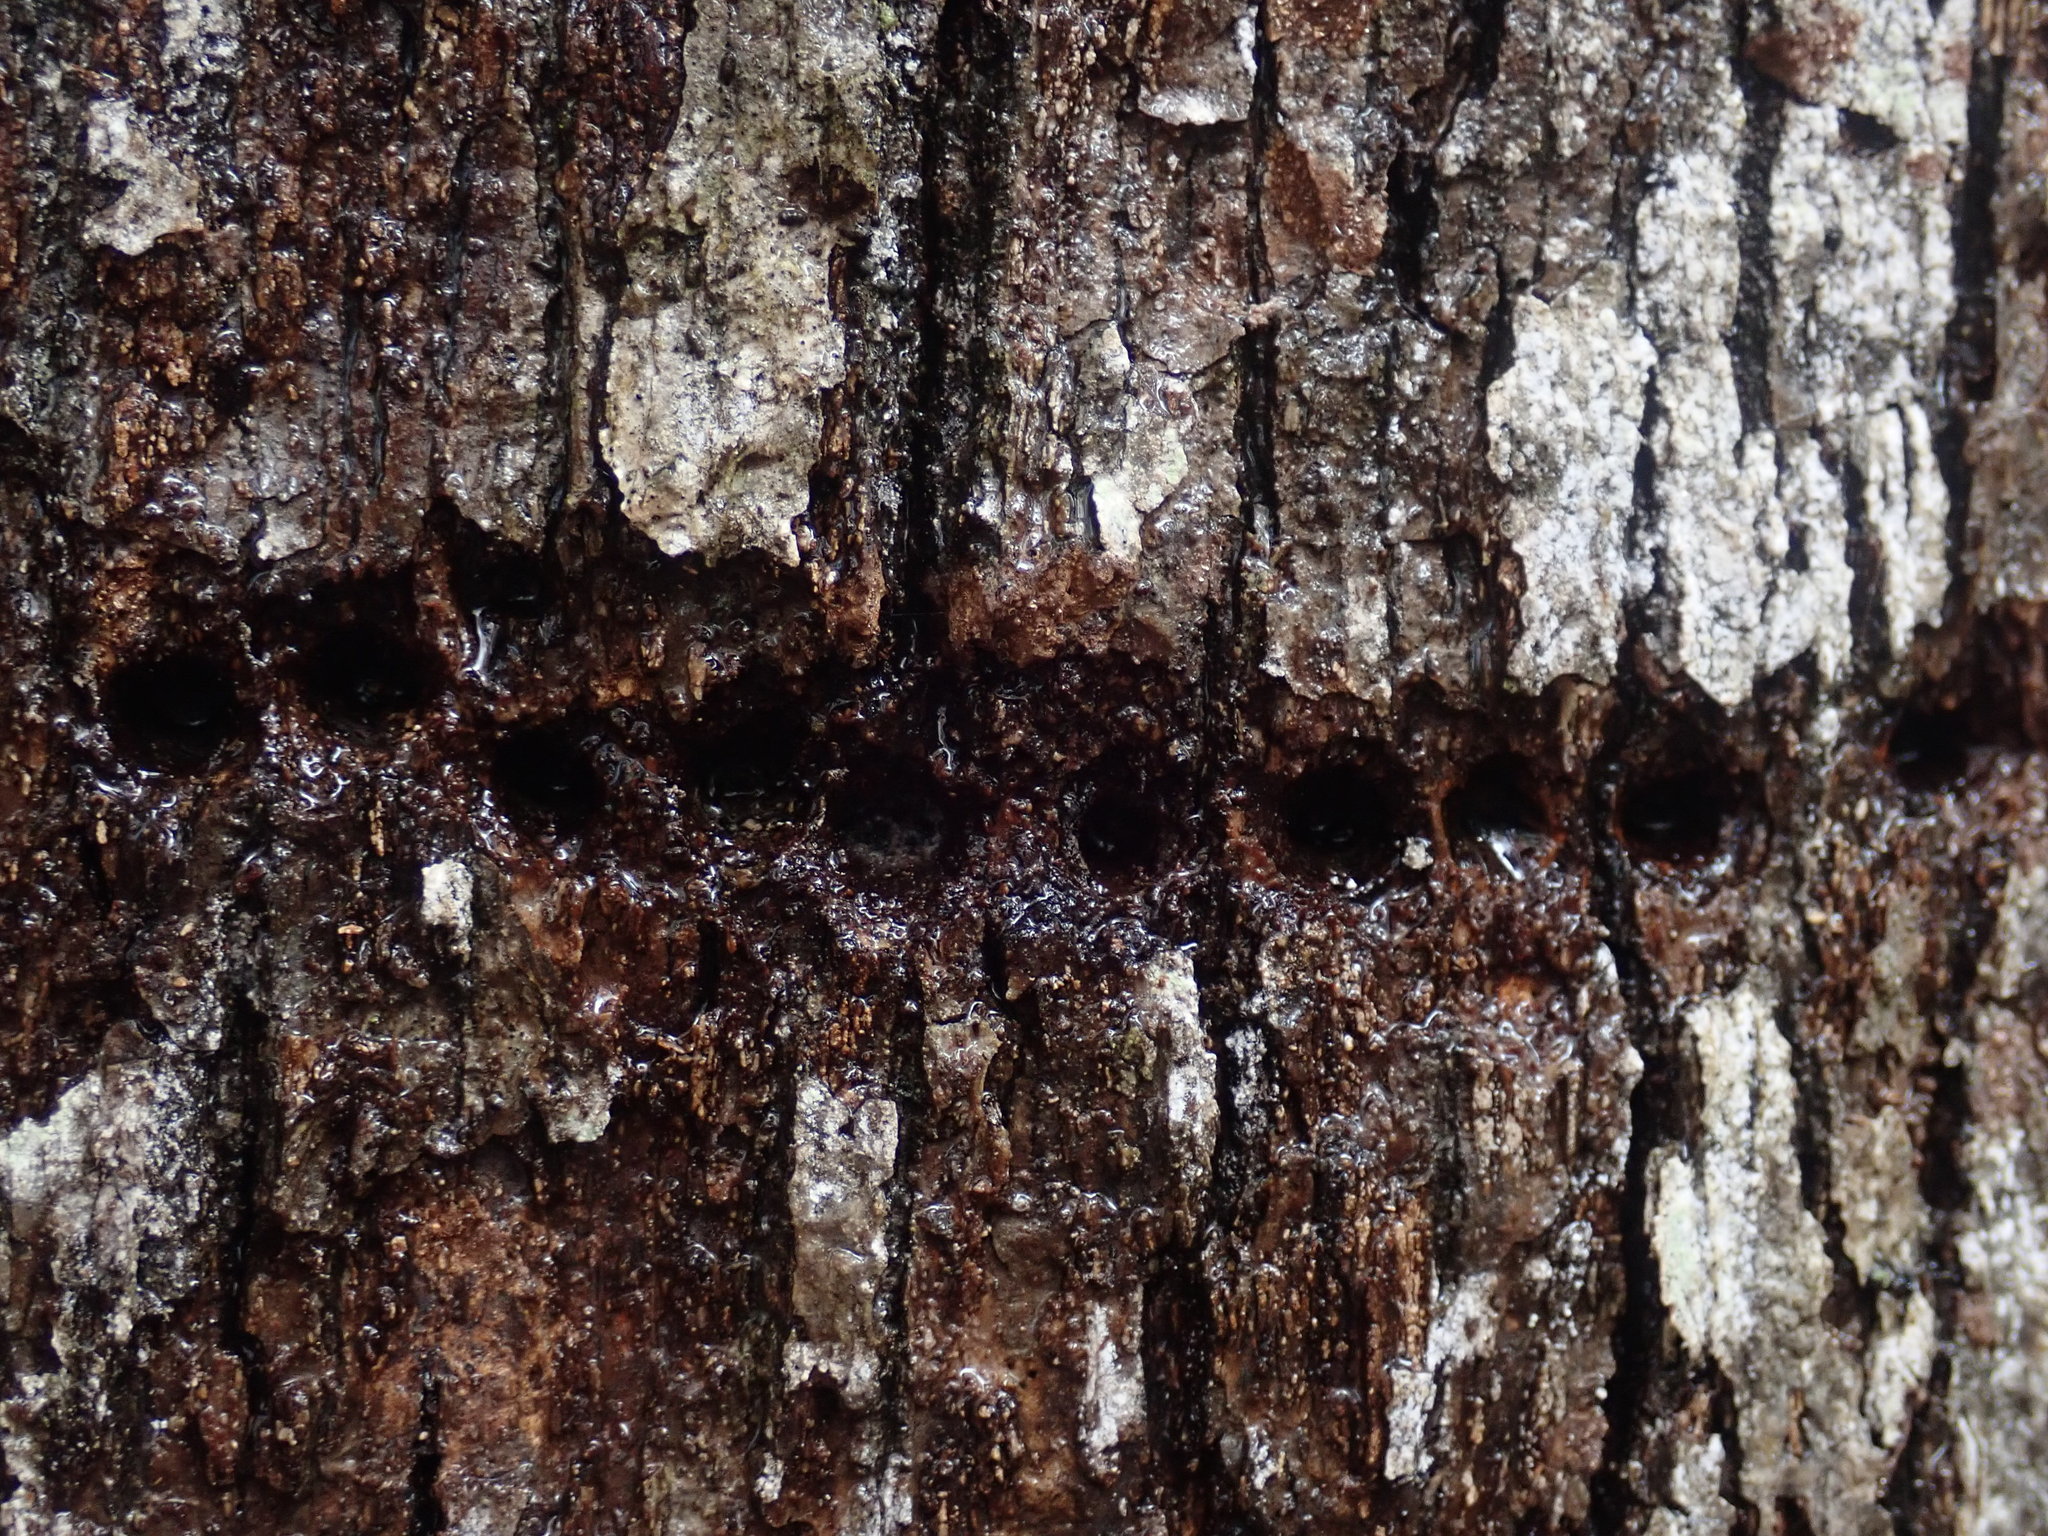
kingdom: Animalia
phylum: Chordata
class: Aves
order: Piciformes
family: Picidae
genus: Sphyrapicus
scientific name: Sphyrapicus varius
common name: Yellow-bellied sapsucker
